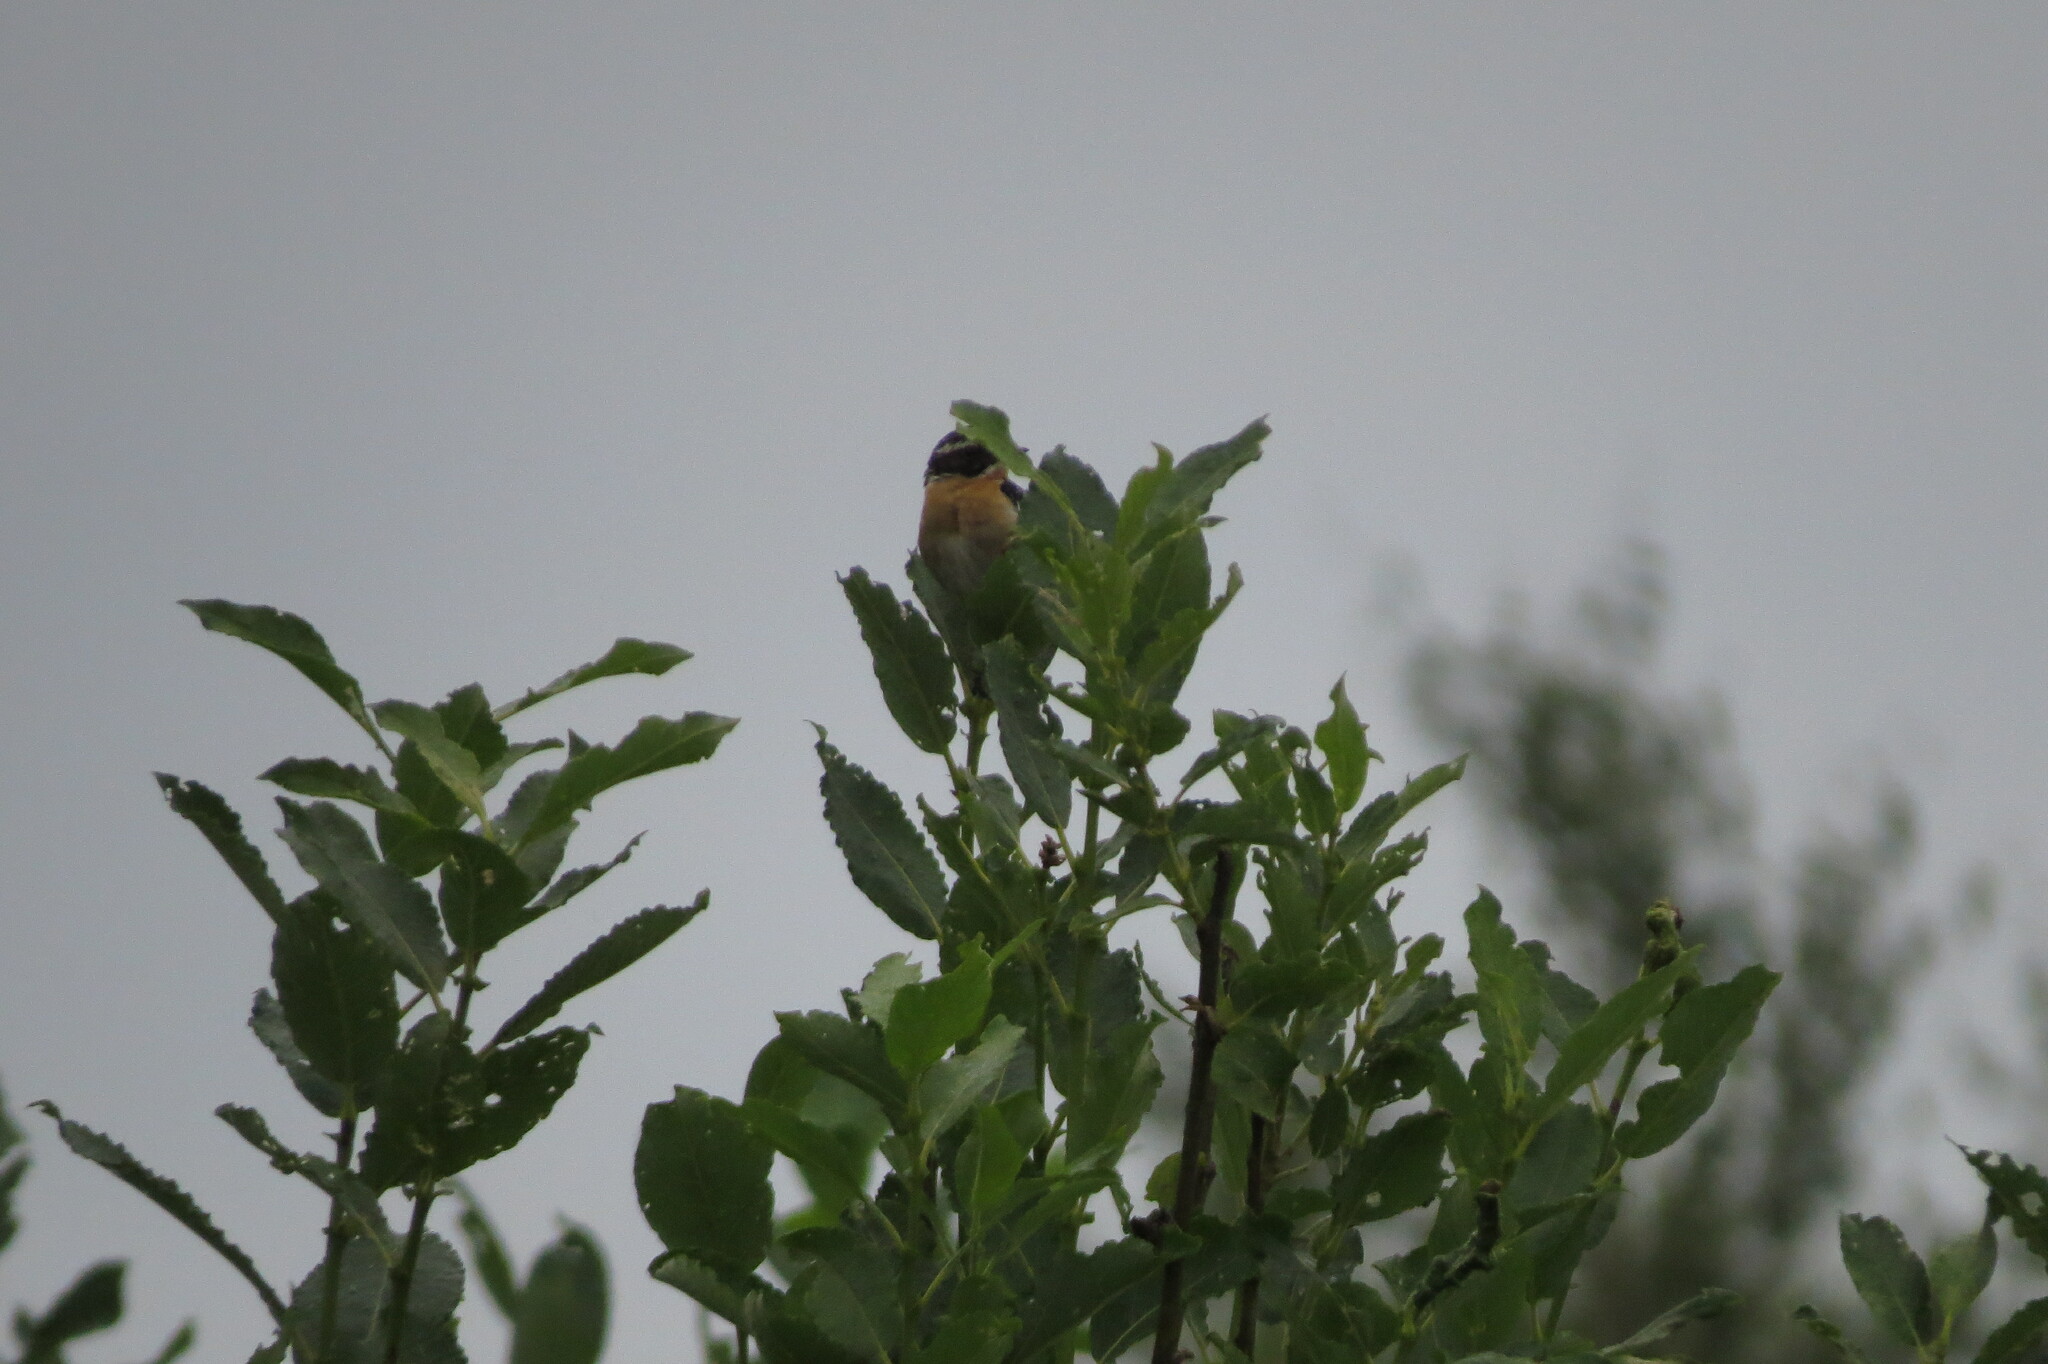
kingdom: Animalia
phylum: Chordata
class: Aves
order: Passeriformes
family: Muscicapidae
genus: Saxicola
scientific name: Saxicola rubetra
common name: Whinchat
